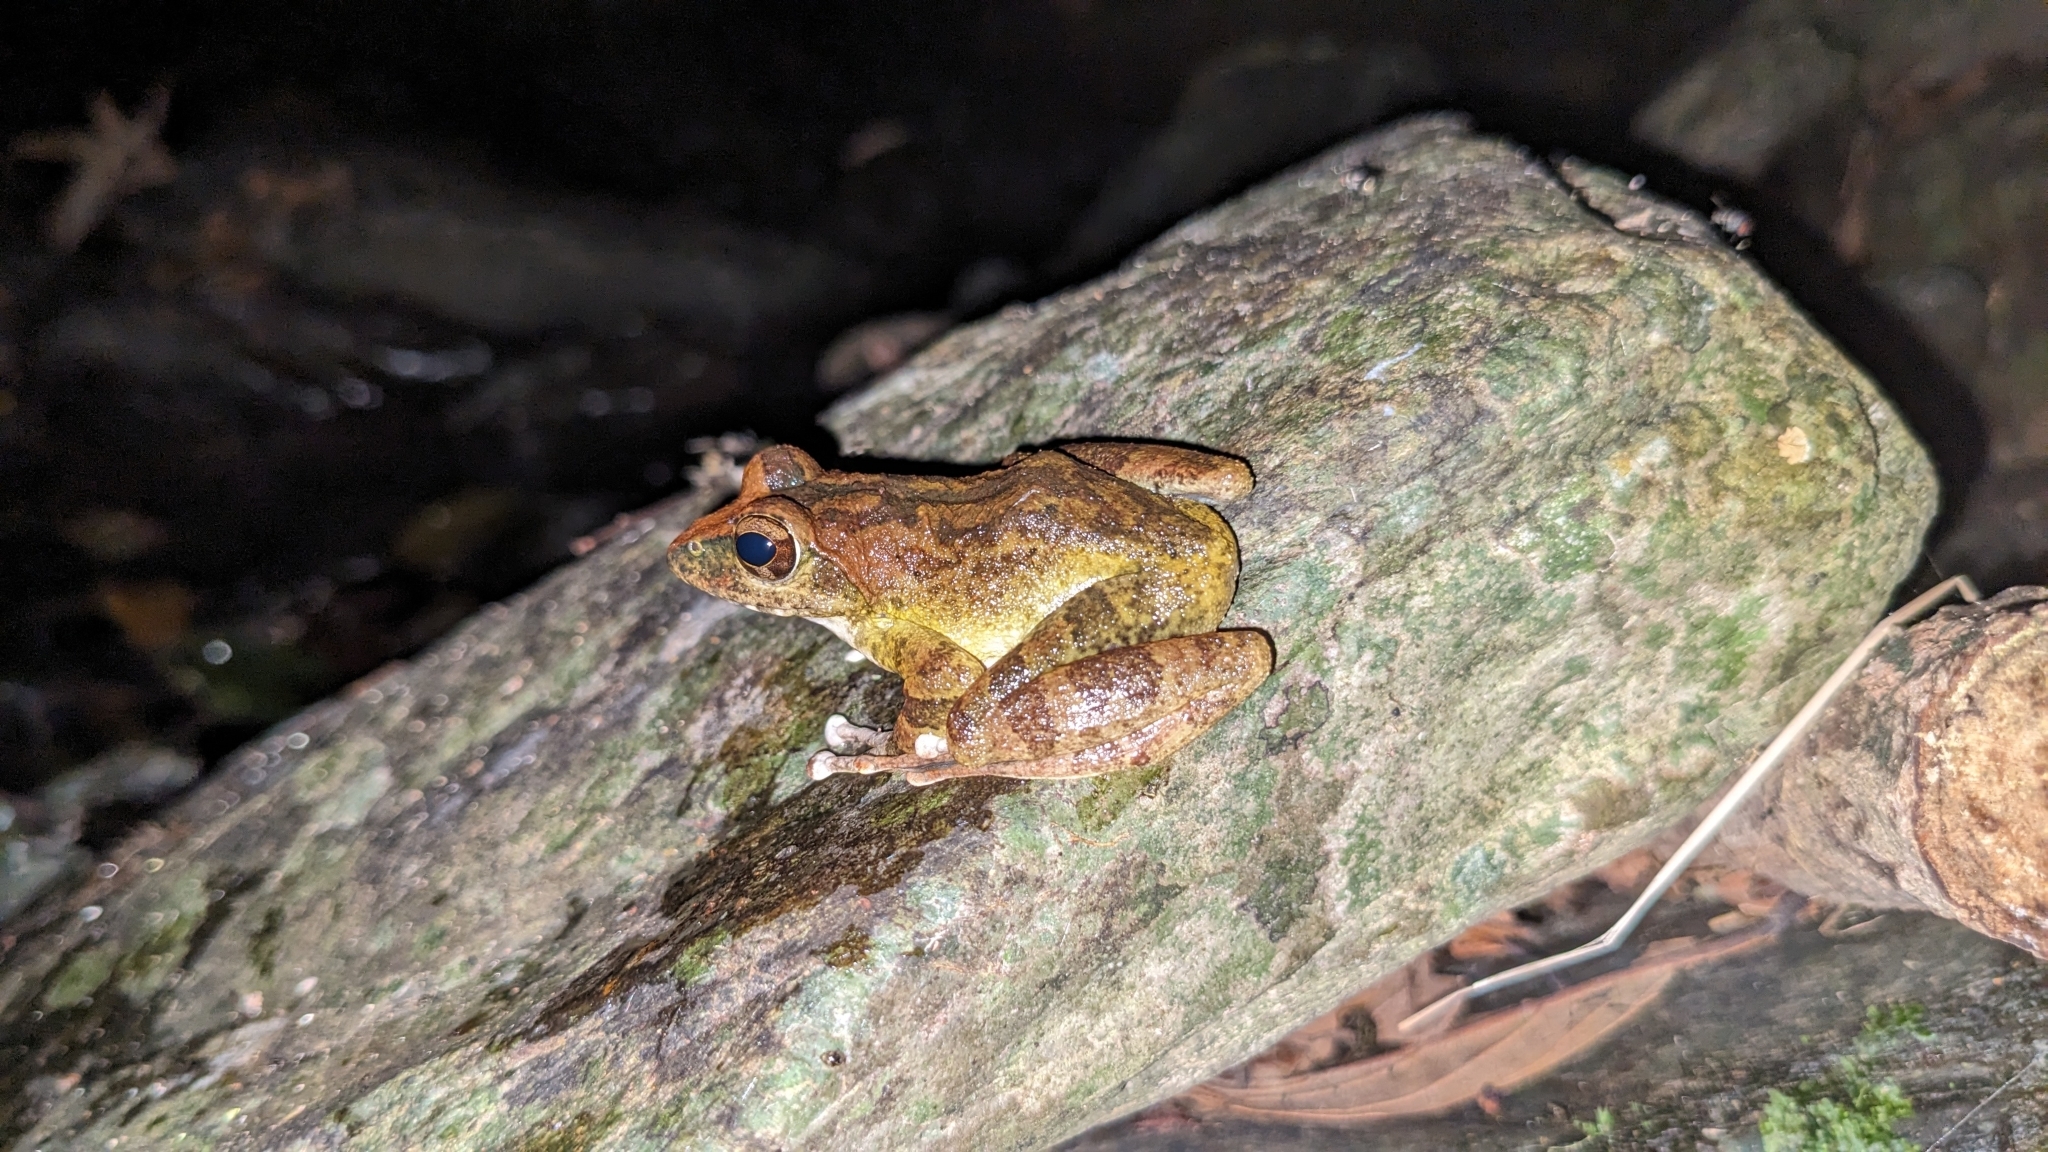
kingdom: Animalia
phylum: Chordata
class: Amphibia
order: Anura
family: Rhacophoridae
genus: Buergeria
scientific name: Buergeria robusta
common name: Brown treefrog
